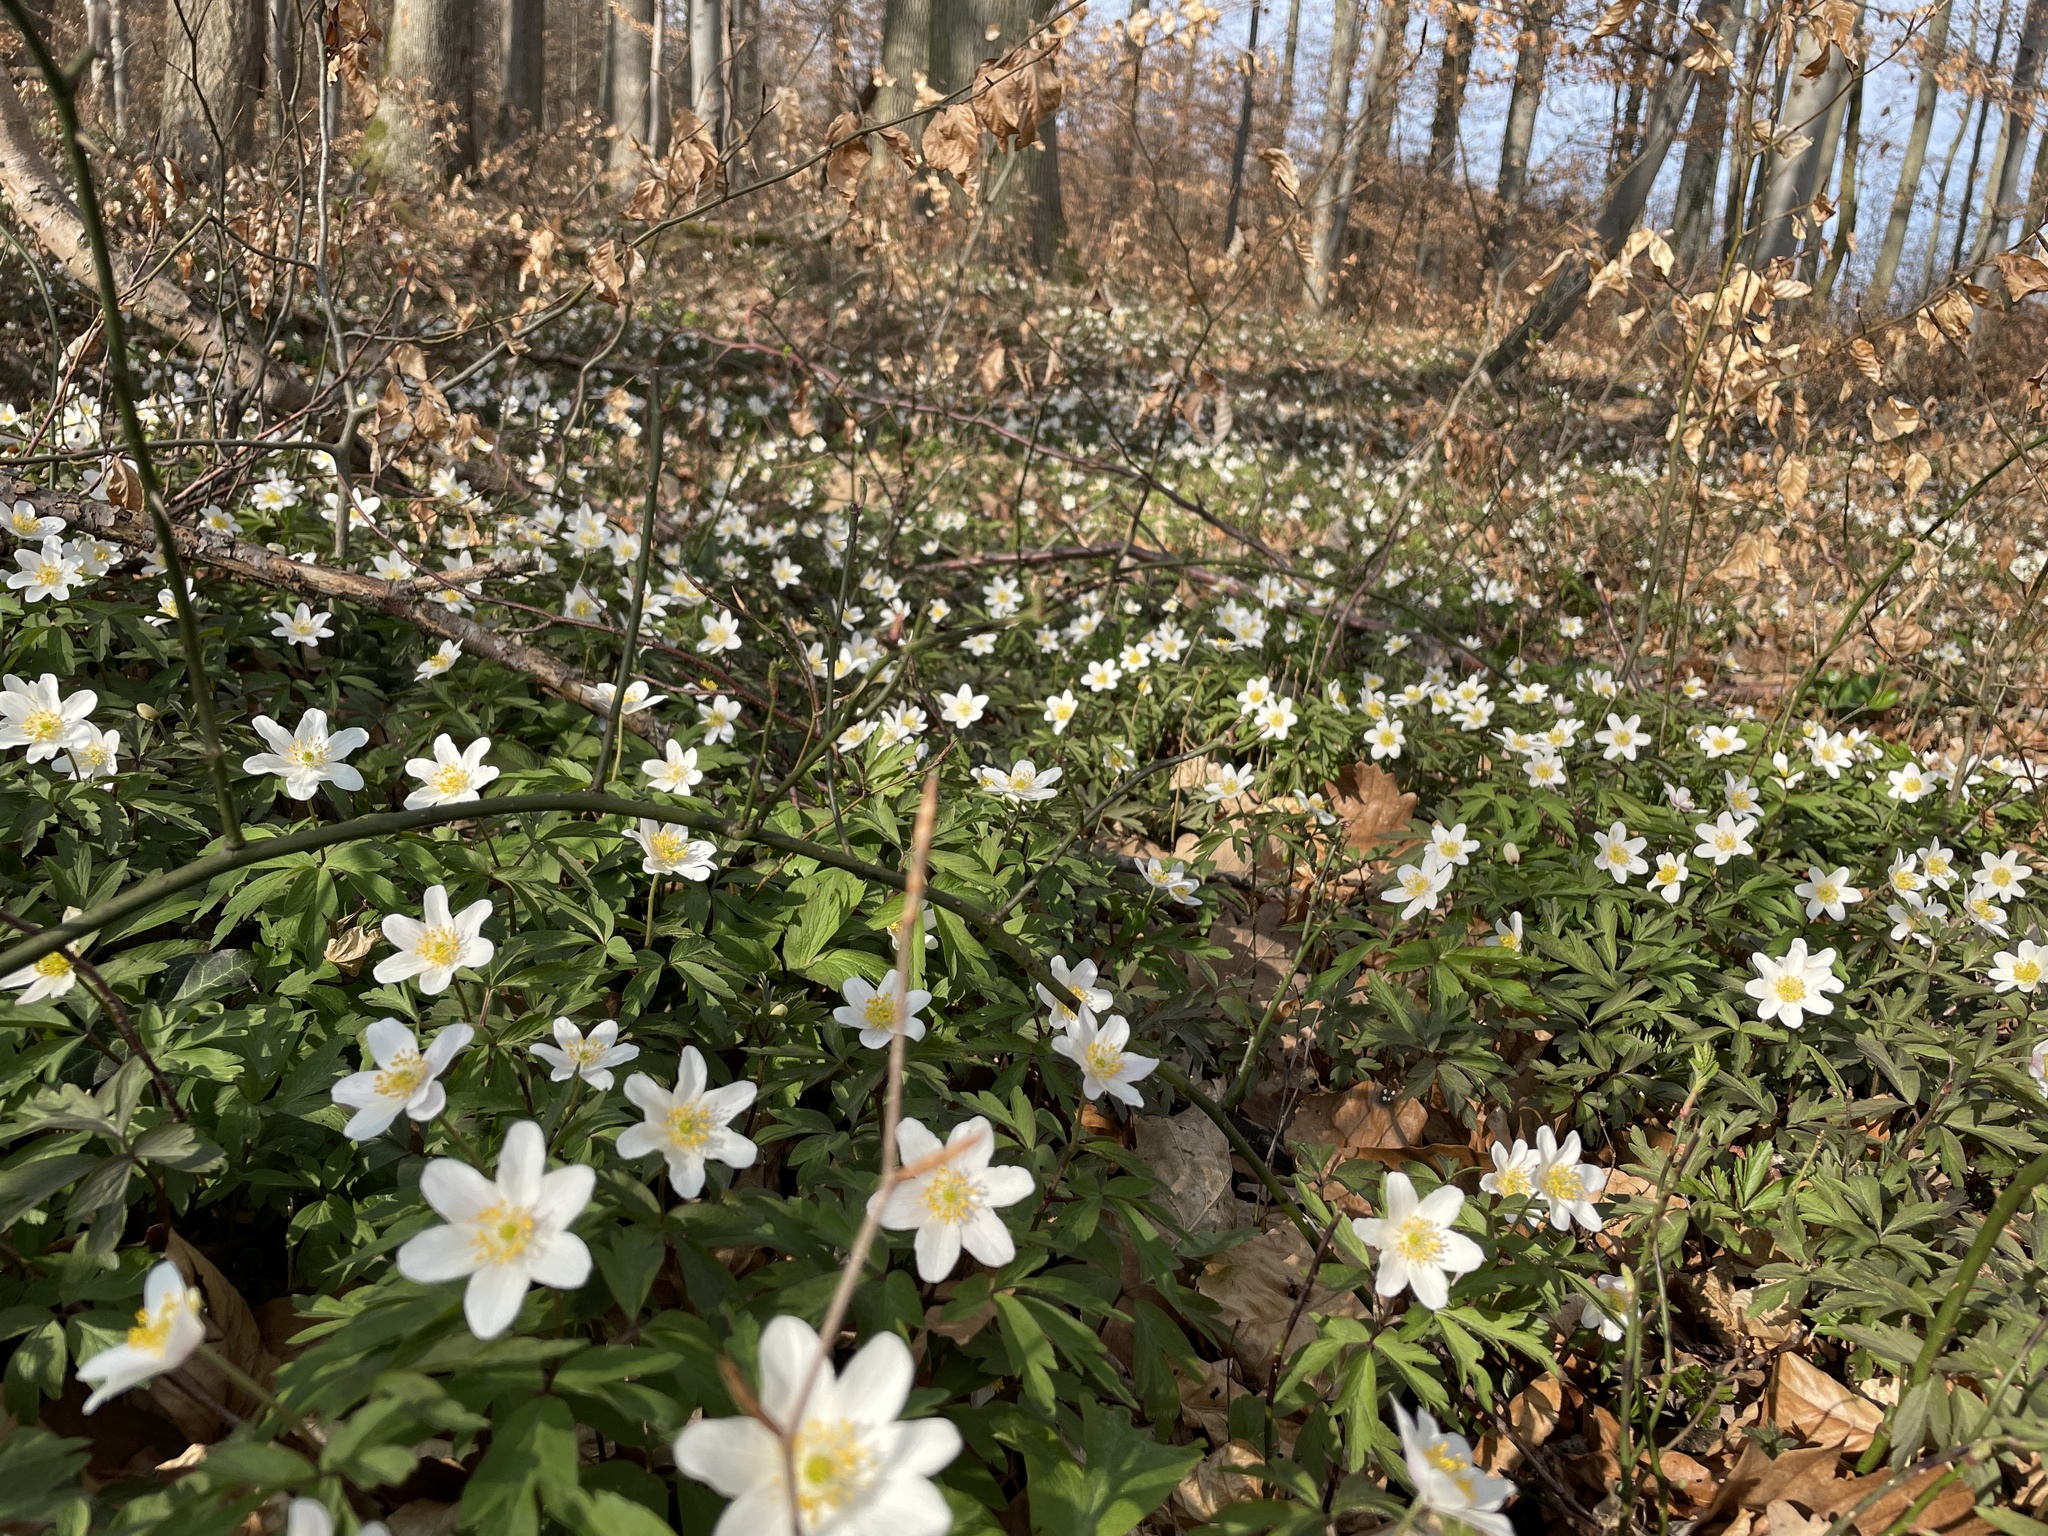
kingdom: Plantae
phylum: Tracheophyta
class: Magnoliopsida
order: Ranunculales
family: Ranunculaceae
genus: Anemone
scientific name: Anemone nemorosa
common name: Wood anemone
